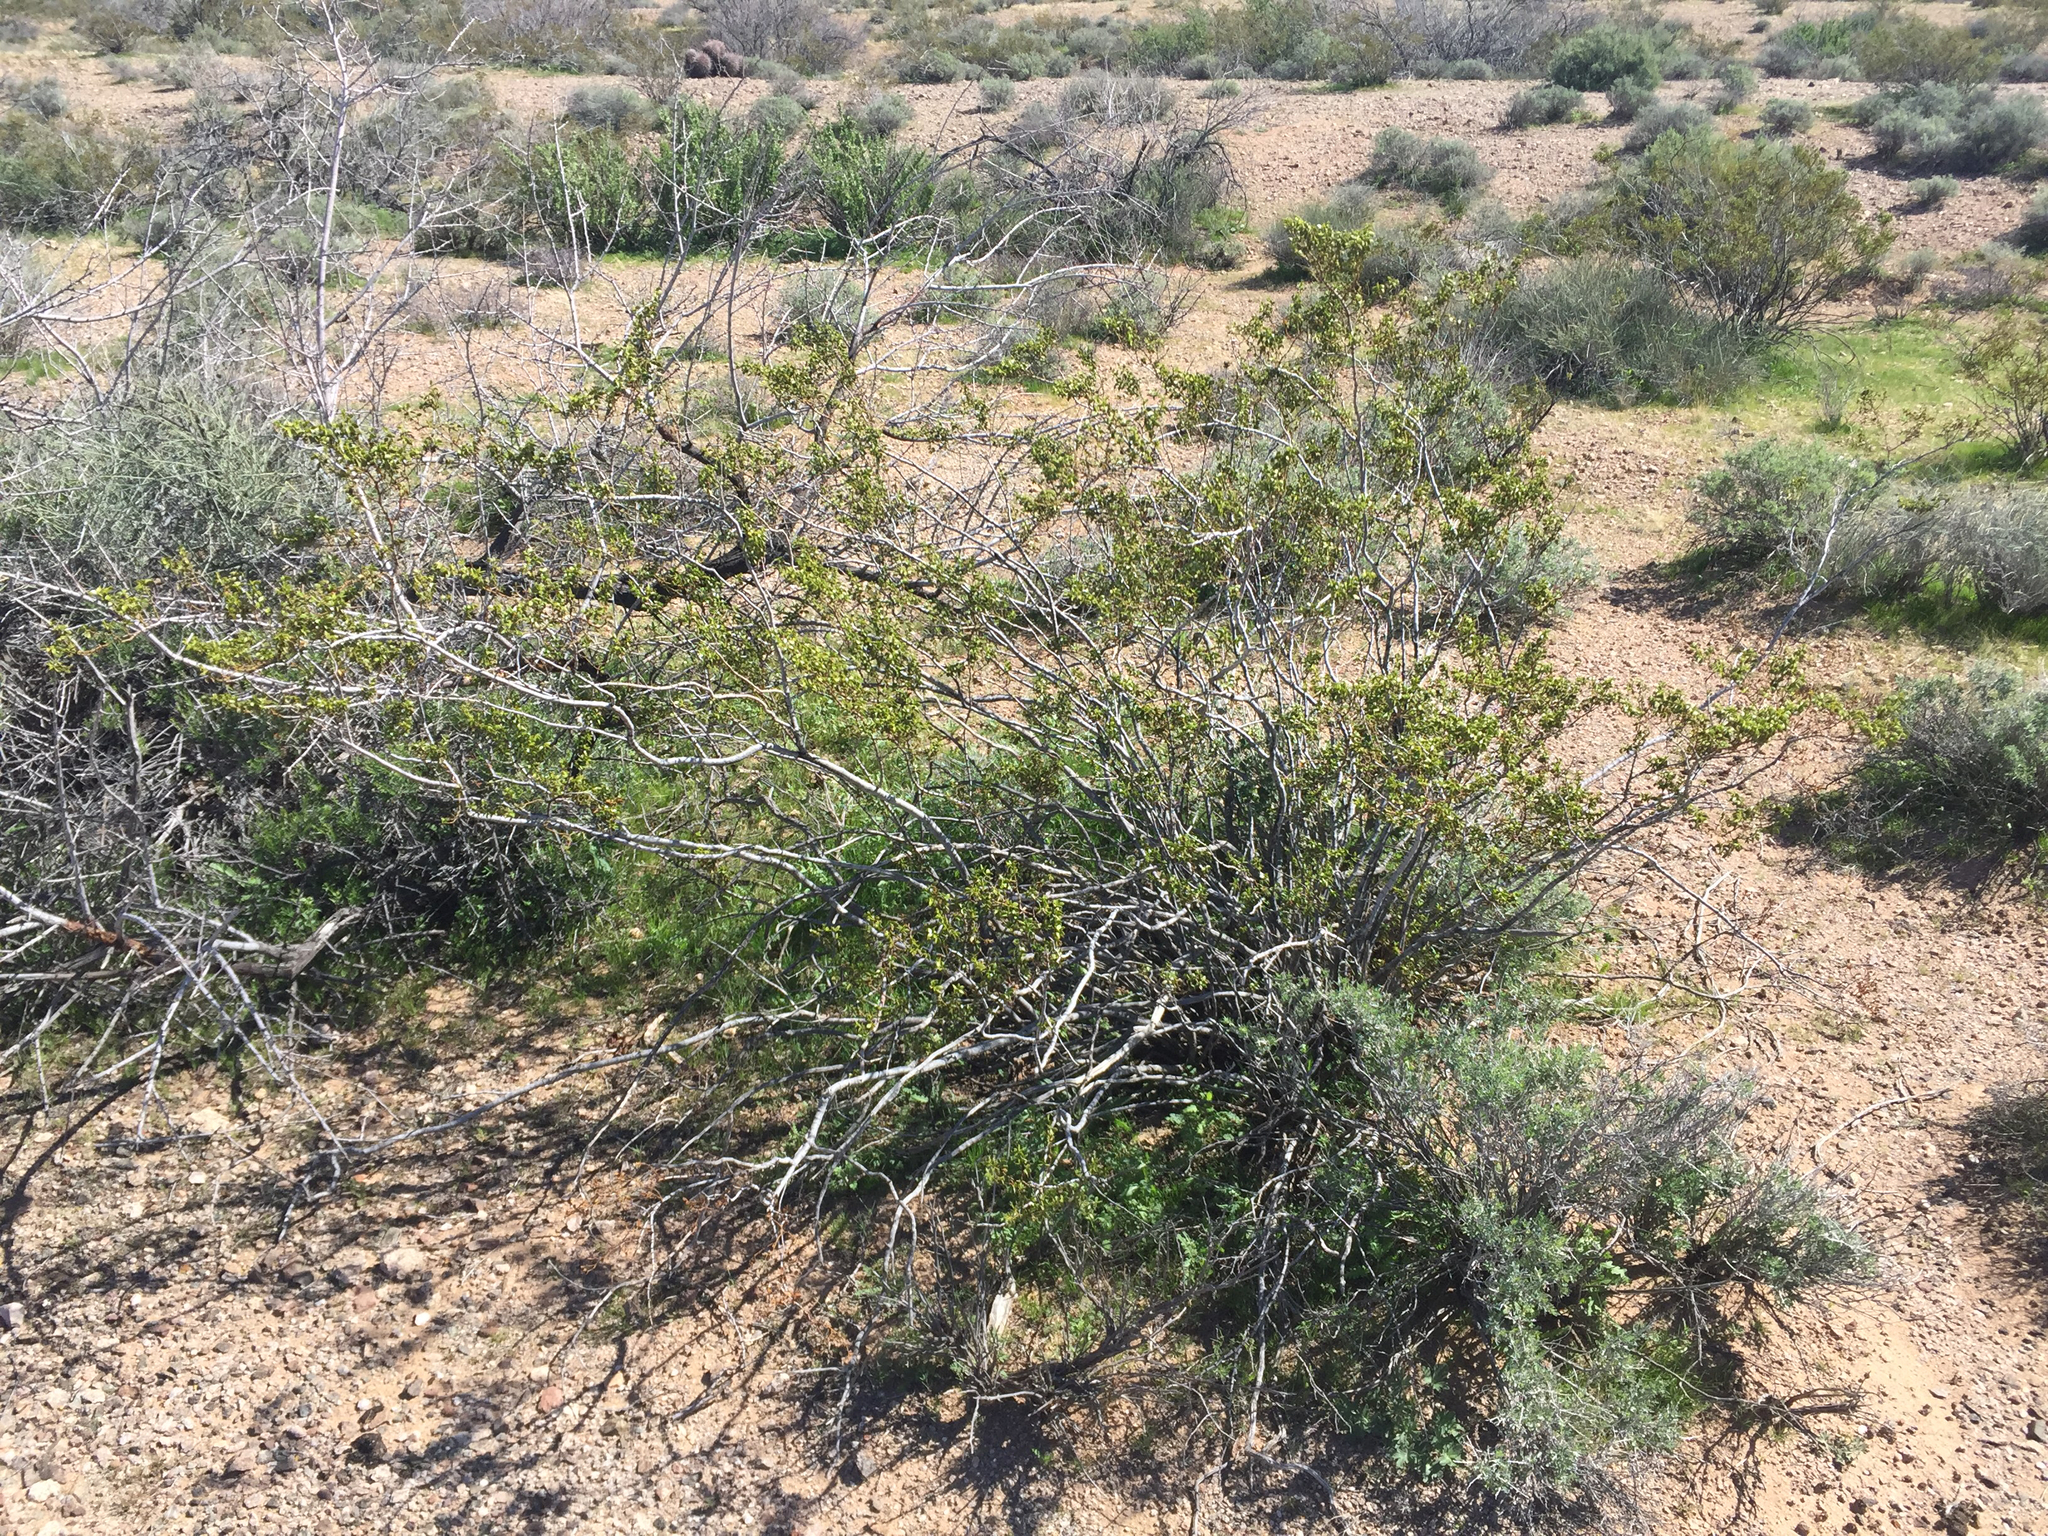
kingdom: Plantae
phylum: Tracheophyta
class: Magnoliopsida
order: Zygophyllales
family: Zygophyllaceae
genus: Larrea
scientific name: Larrea tridentata
